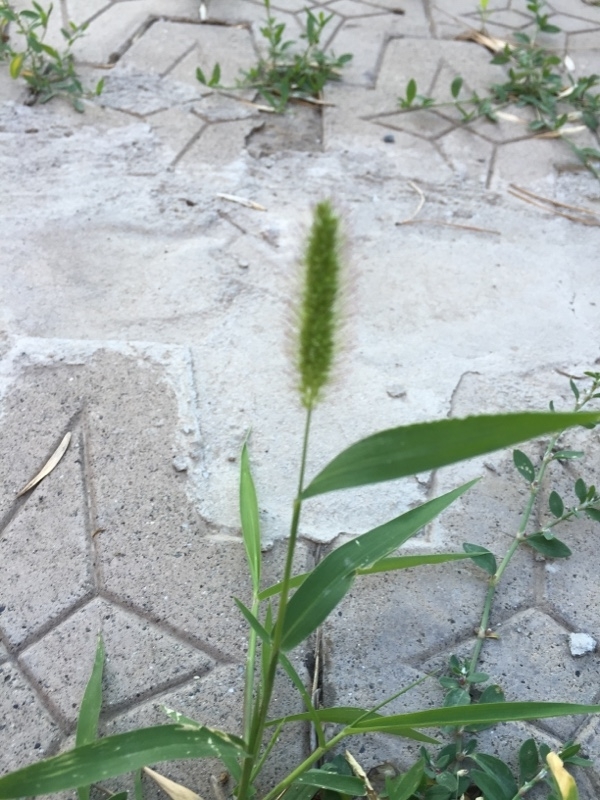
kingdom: Plantae
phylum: Tracheophyta
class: Liliopsida
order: Poales
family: Poaceae
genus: Setaria
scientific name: Setaria viridis
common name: Green bristlegrass
